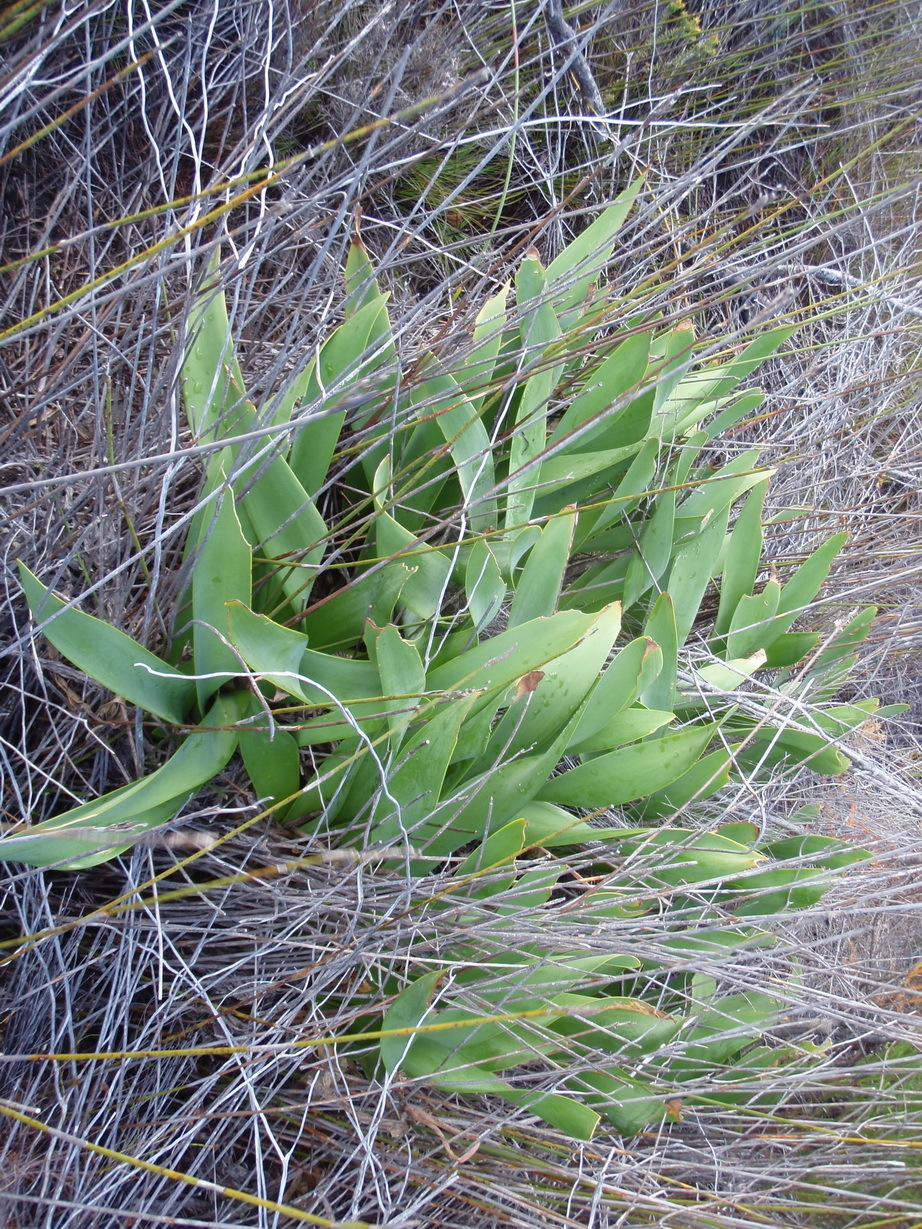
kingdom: Plantae
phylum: Tracheophyta
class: Liliopsida
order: Asparagales
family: Amaryllidaceae
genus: Cyrtanthus
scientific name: Cyrtanthus carneus
